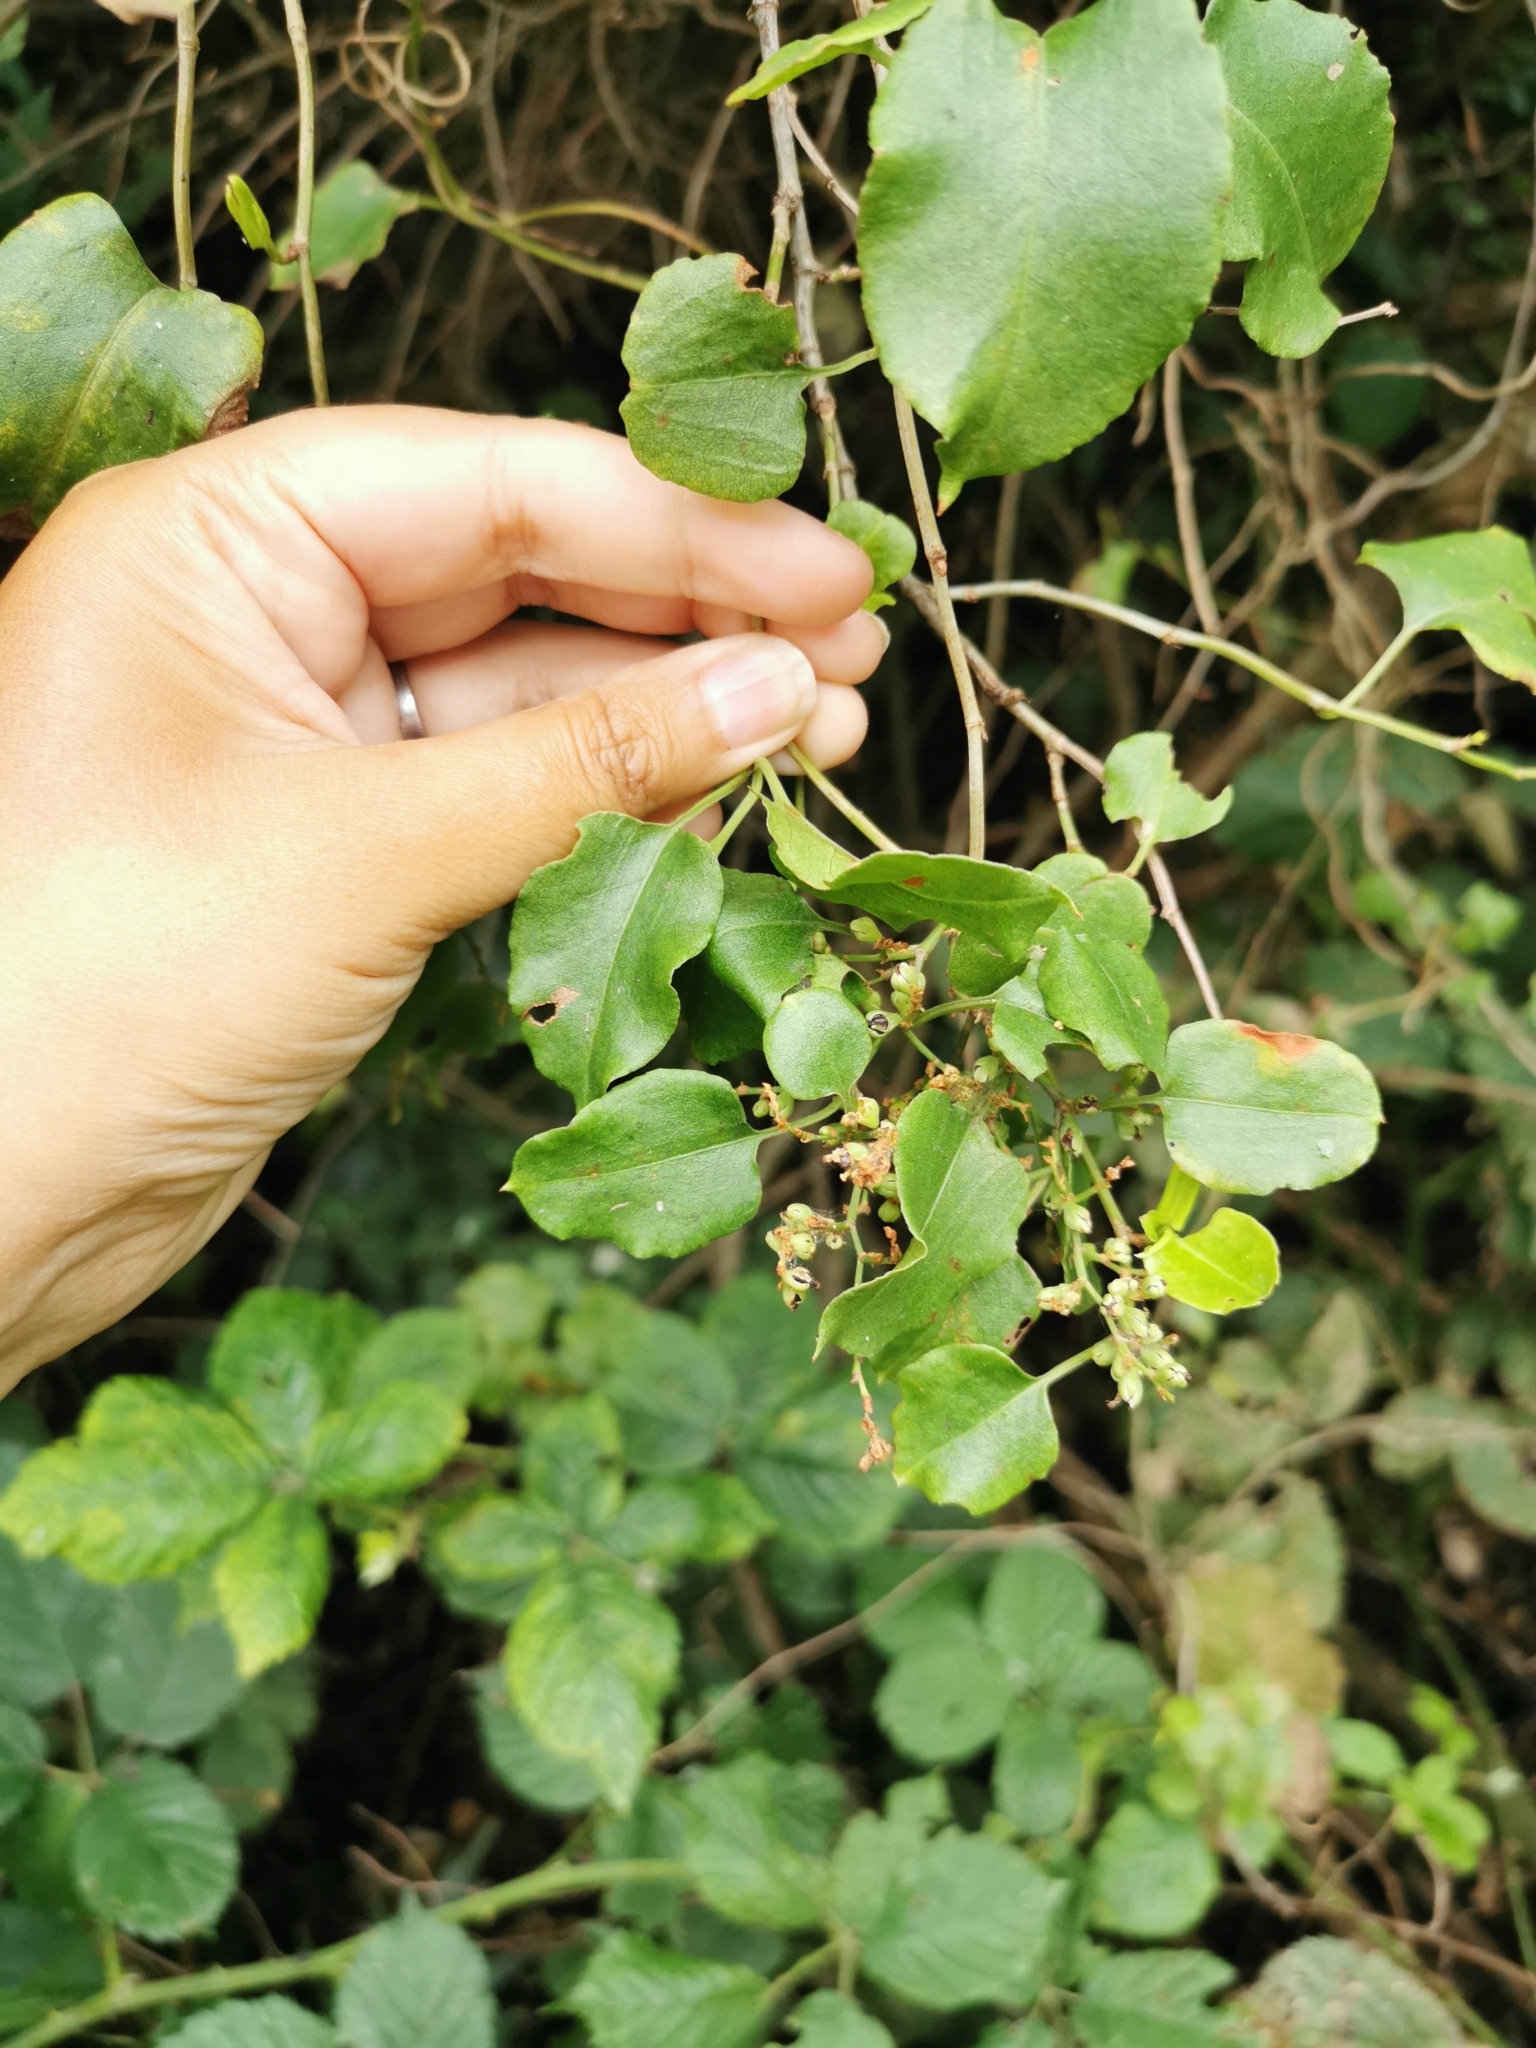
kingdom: Plantae
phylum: Tracheophyta
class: Magnoliopsida
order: Caryophyllales
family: Polygonaceae
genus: Muehlenbeckia
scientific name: Muehlenbeckia australis
